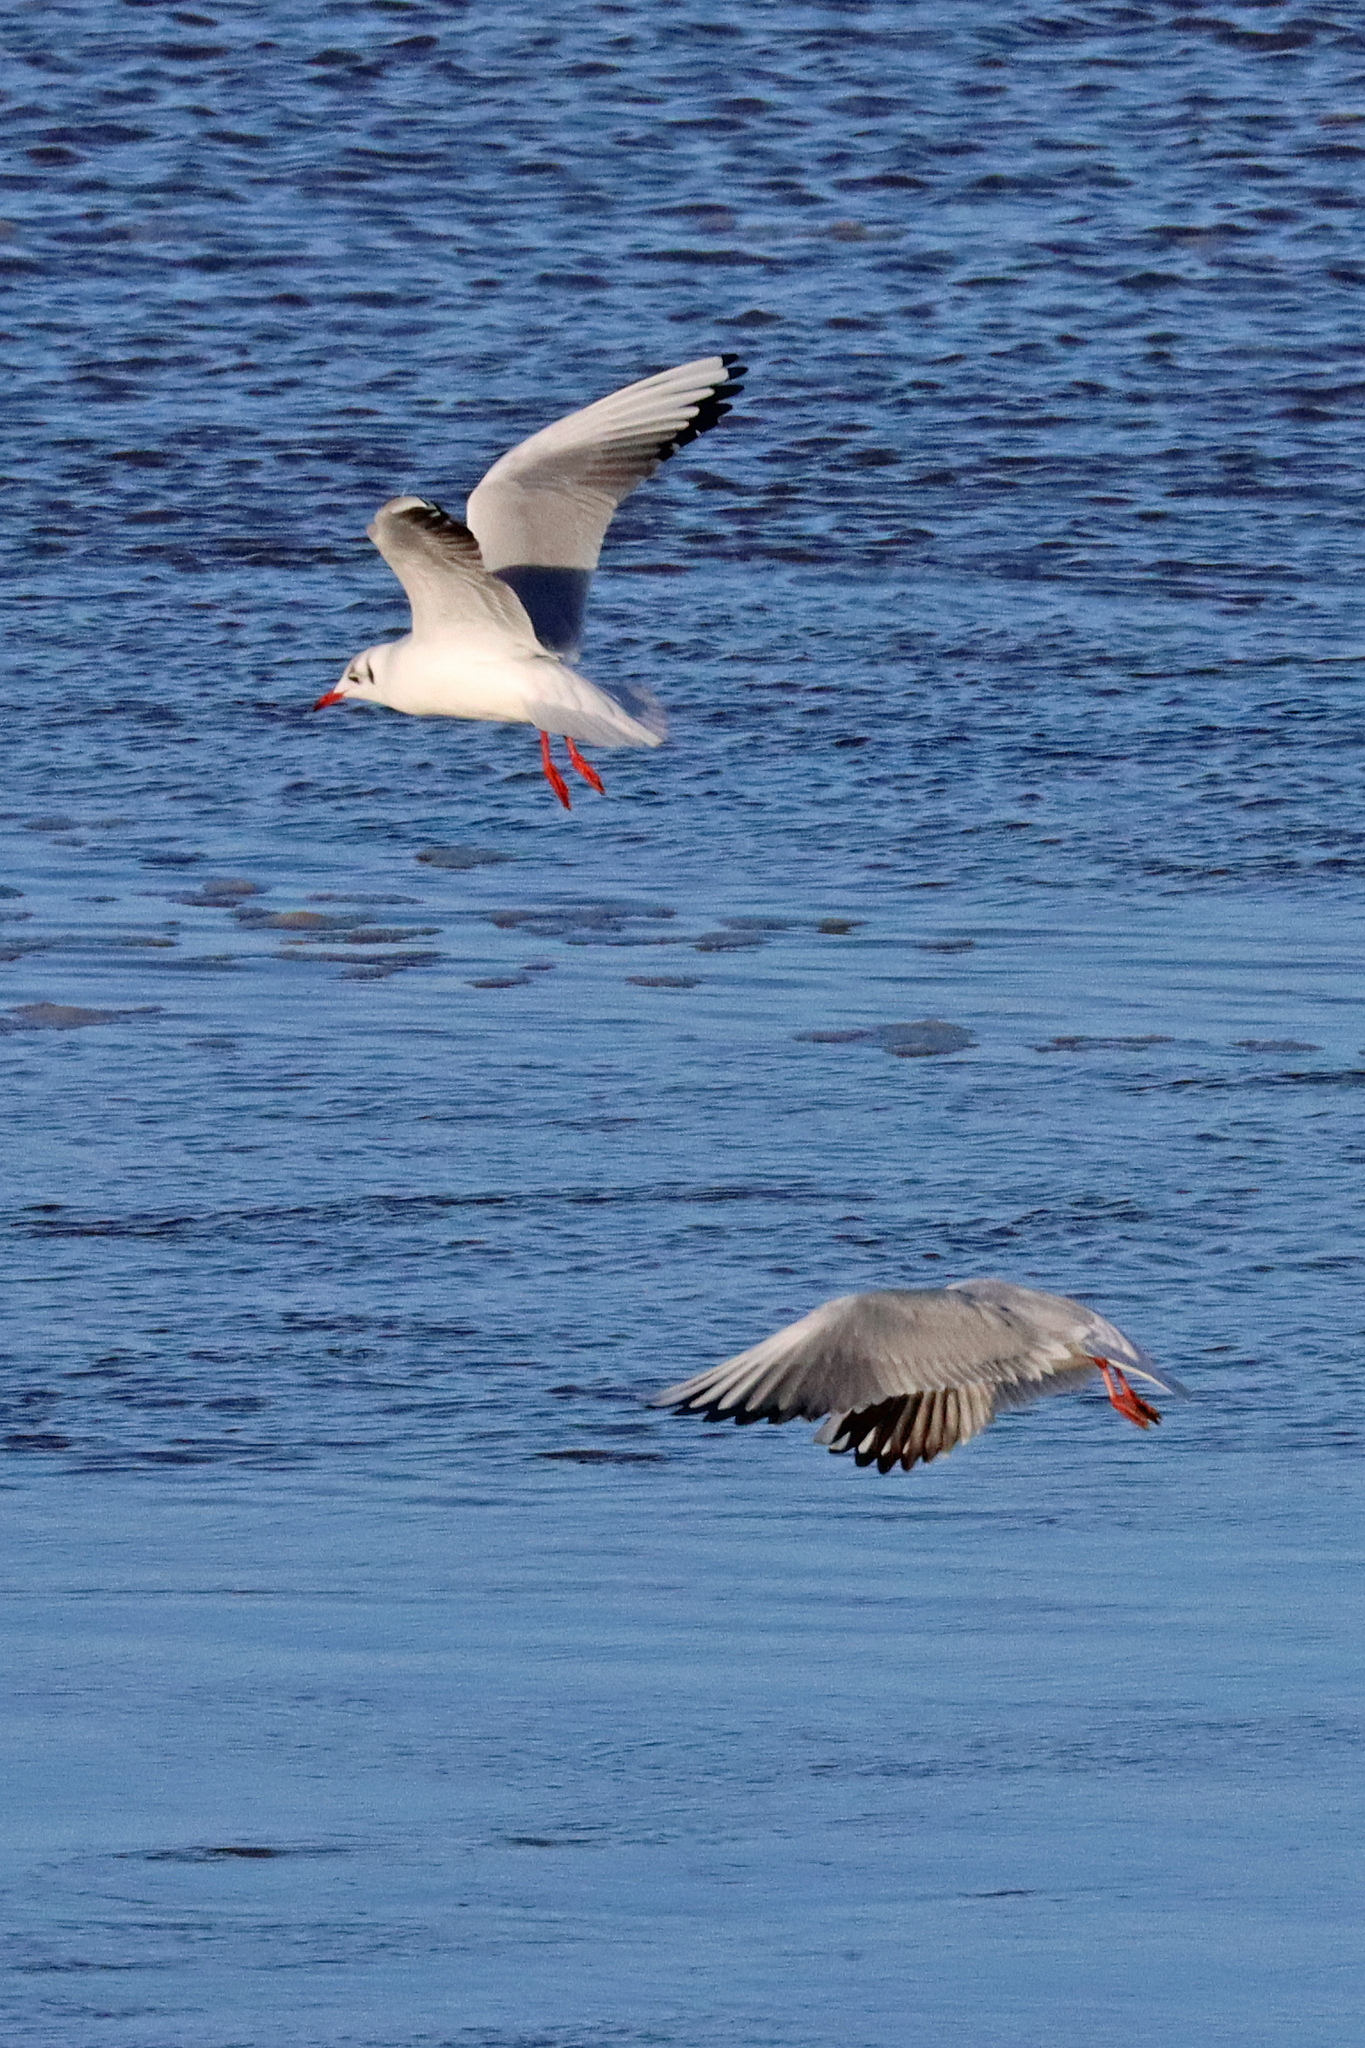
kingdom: Animalia
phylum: Chordata
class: Aves
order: Charadriiformes
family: Laridae
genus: Chroicocephalus
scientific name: Chroicocephalus ridibundus
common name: Black-headed gull
